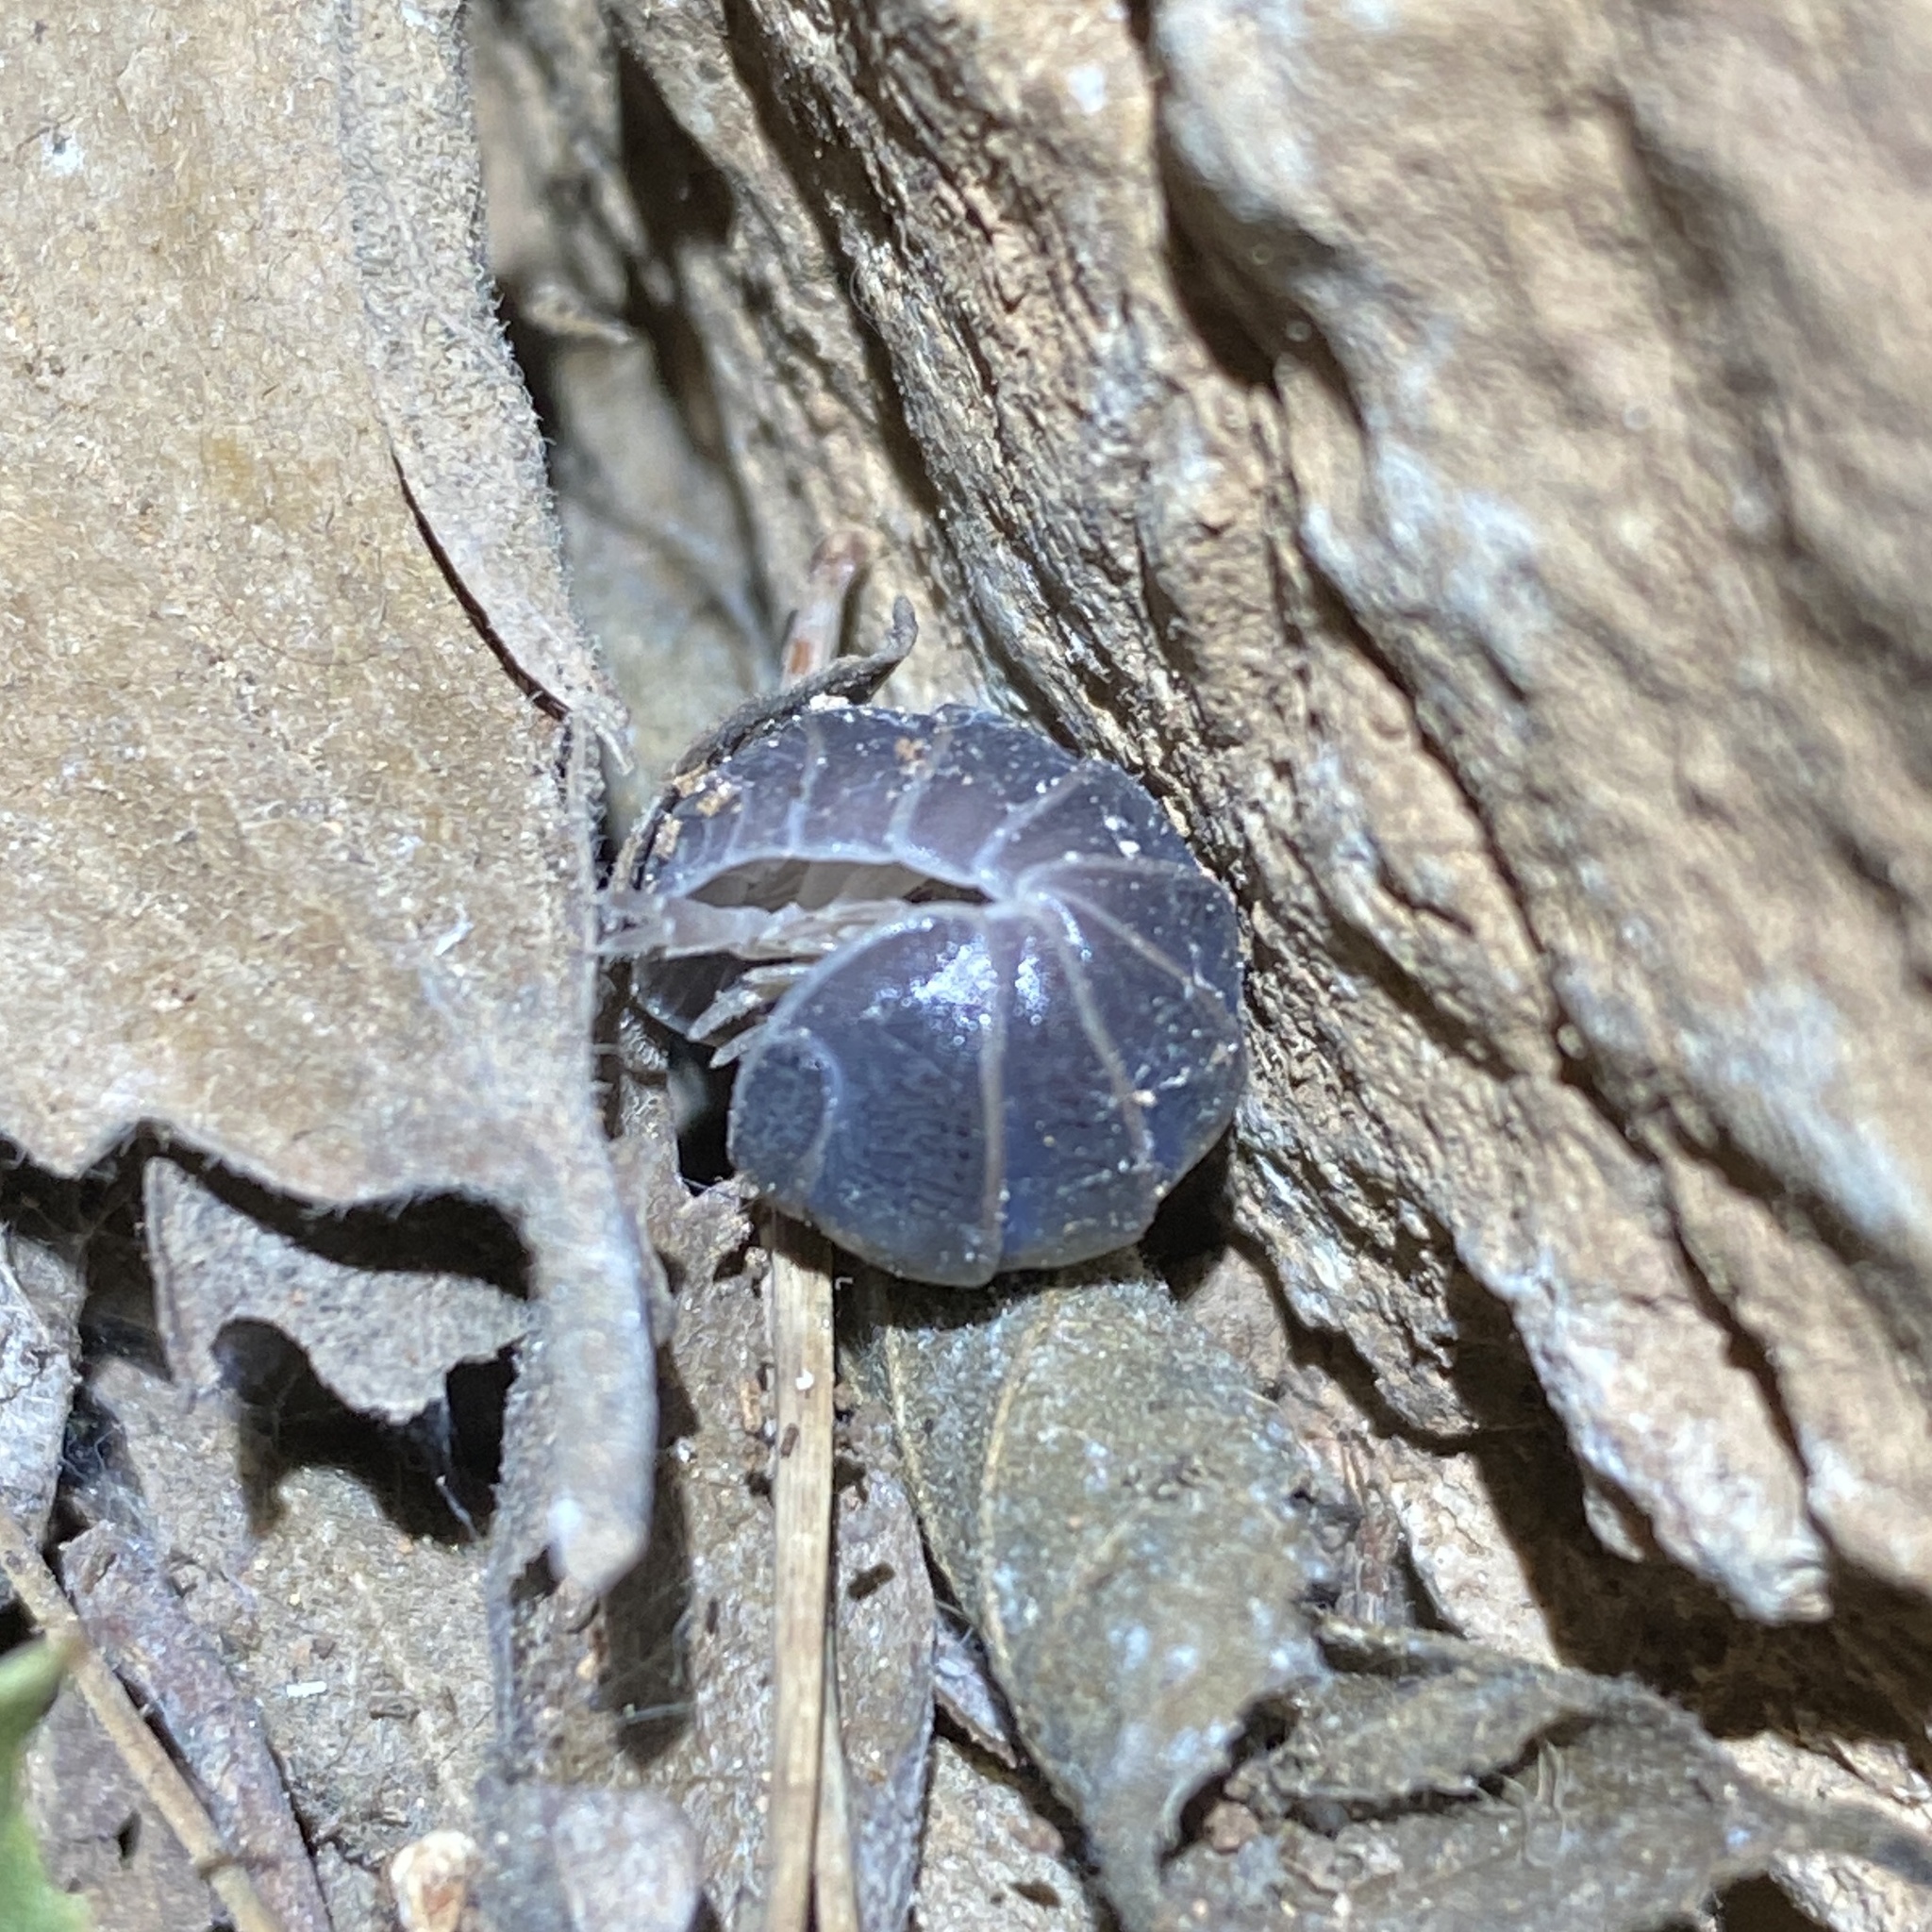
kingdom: Animalia
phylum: Arthropoda
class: Malacostraca
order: Isopoda
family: Armadillidae
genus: Armadillo
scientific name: Armadillo officinalis
